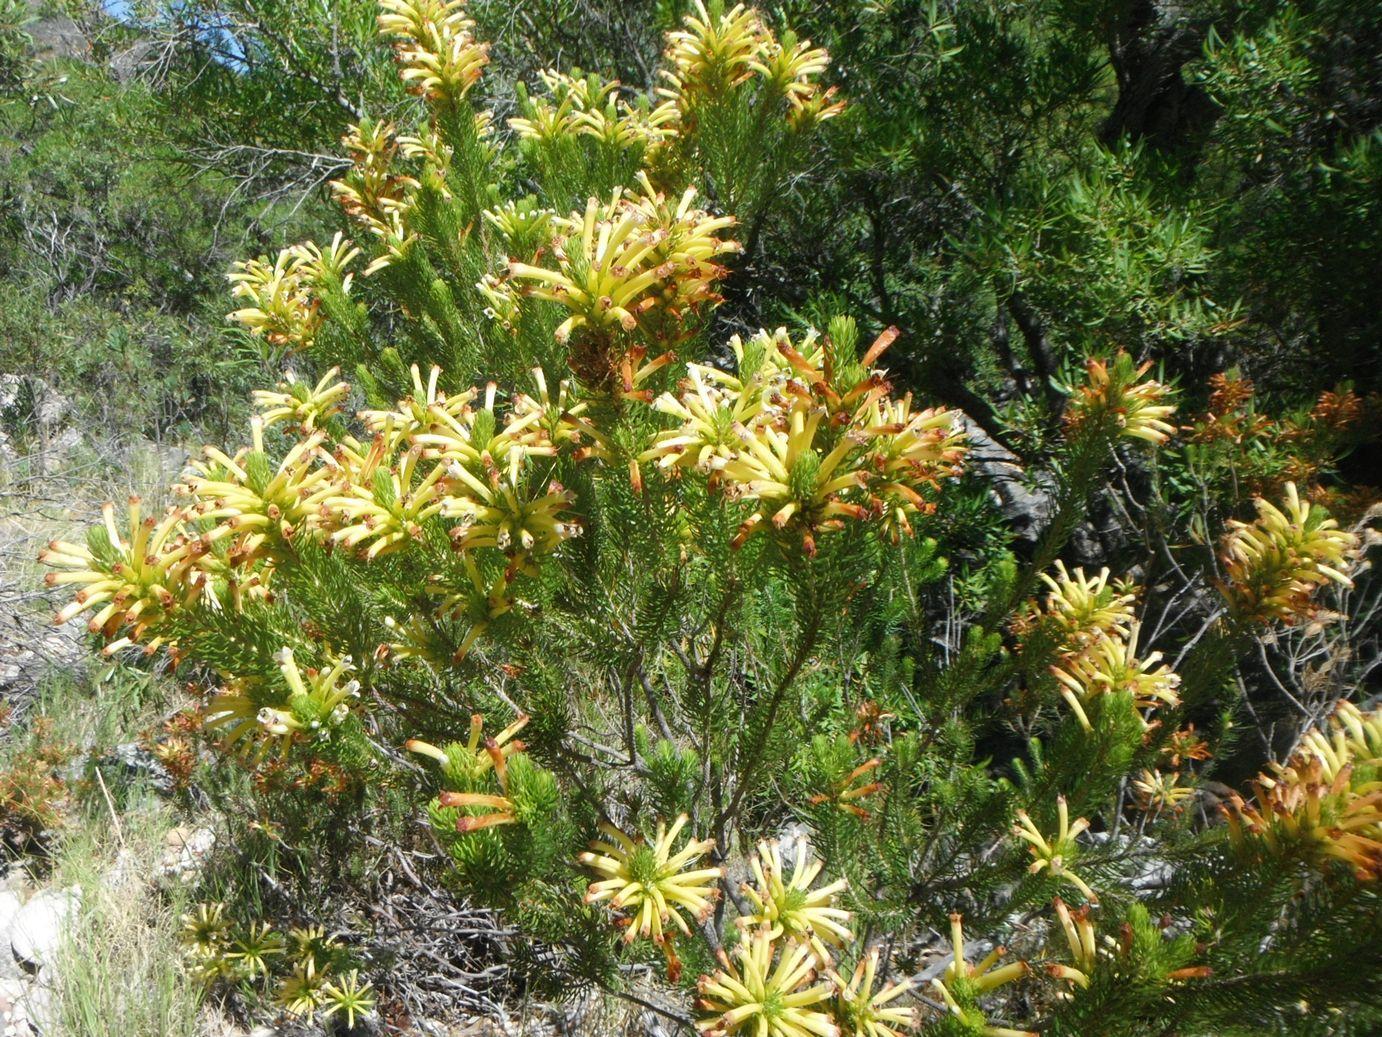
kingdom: Plantae
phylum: Tracheophyta
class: Magnoliopsida
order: Ericales
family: Ericaceae
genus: Erica
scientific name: Erica pinea
